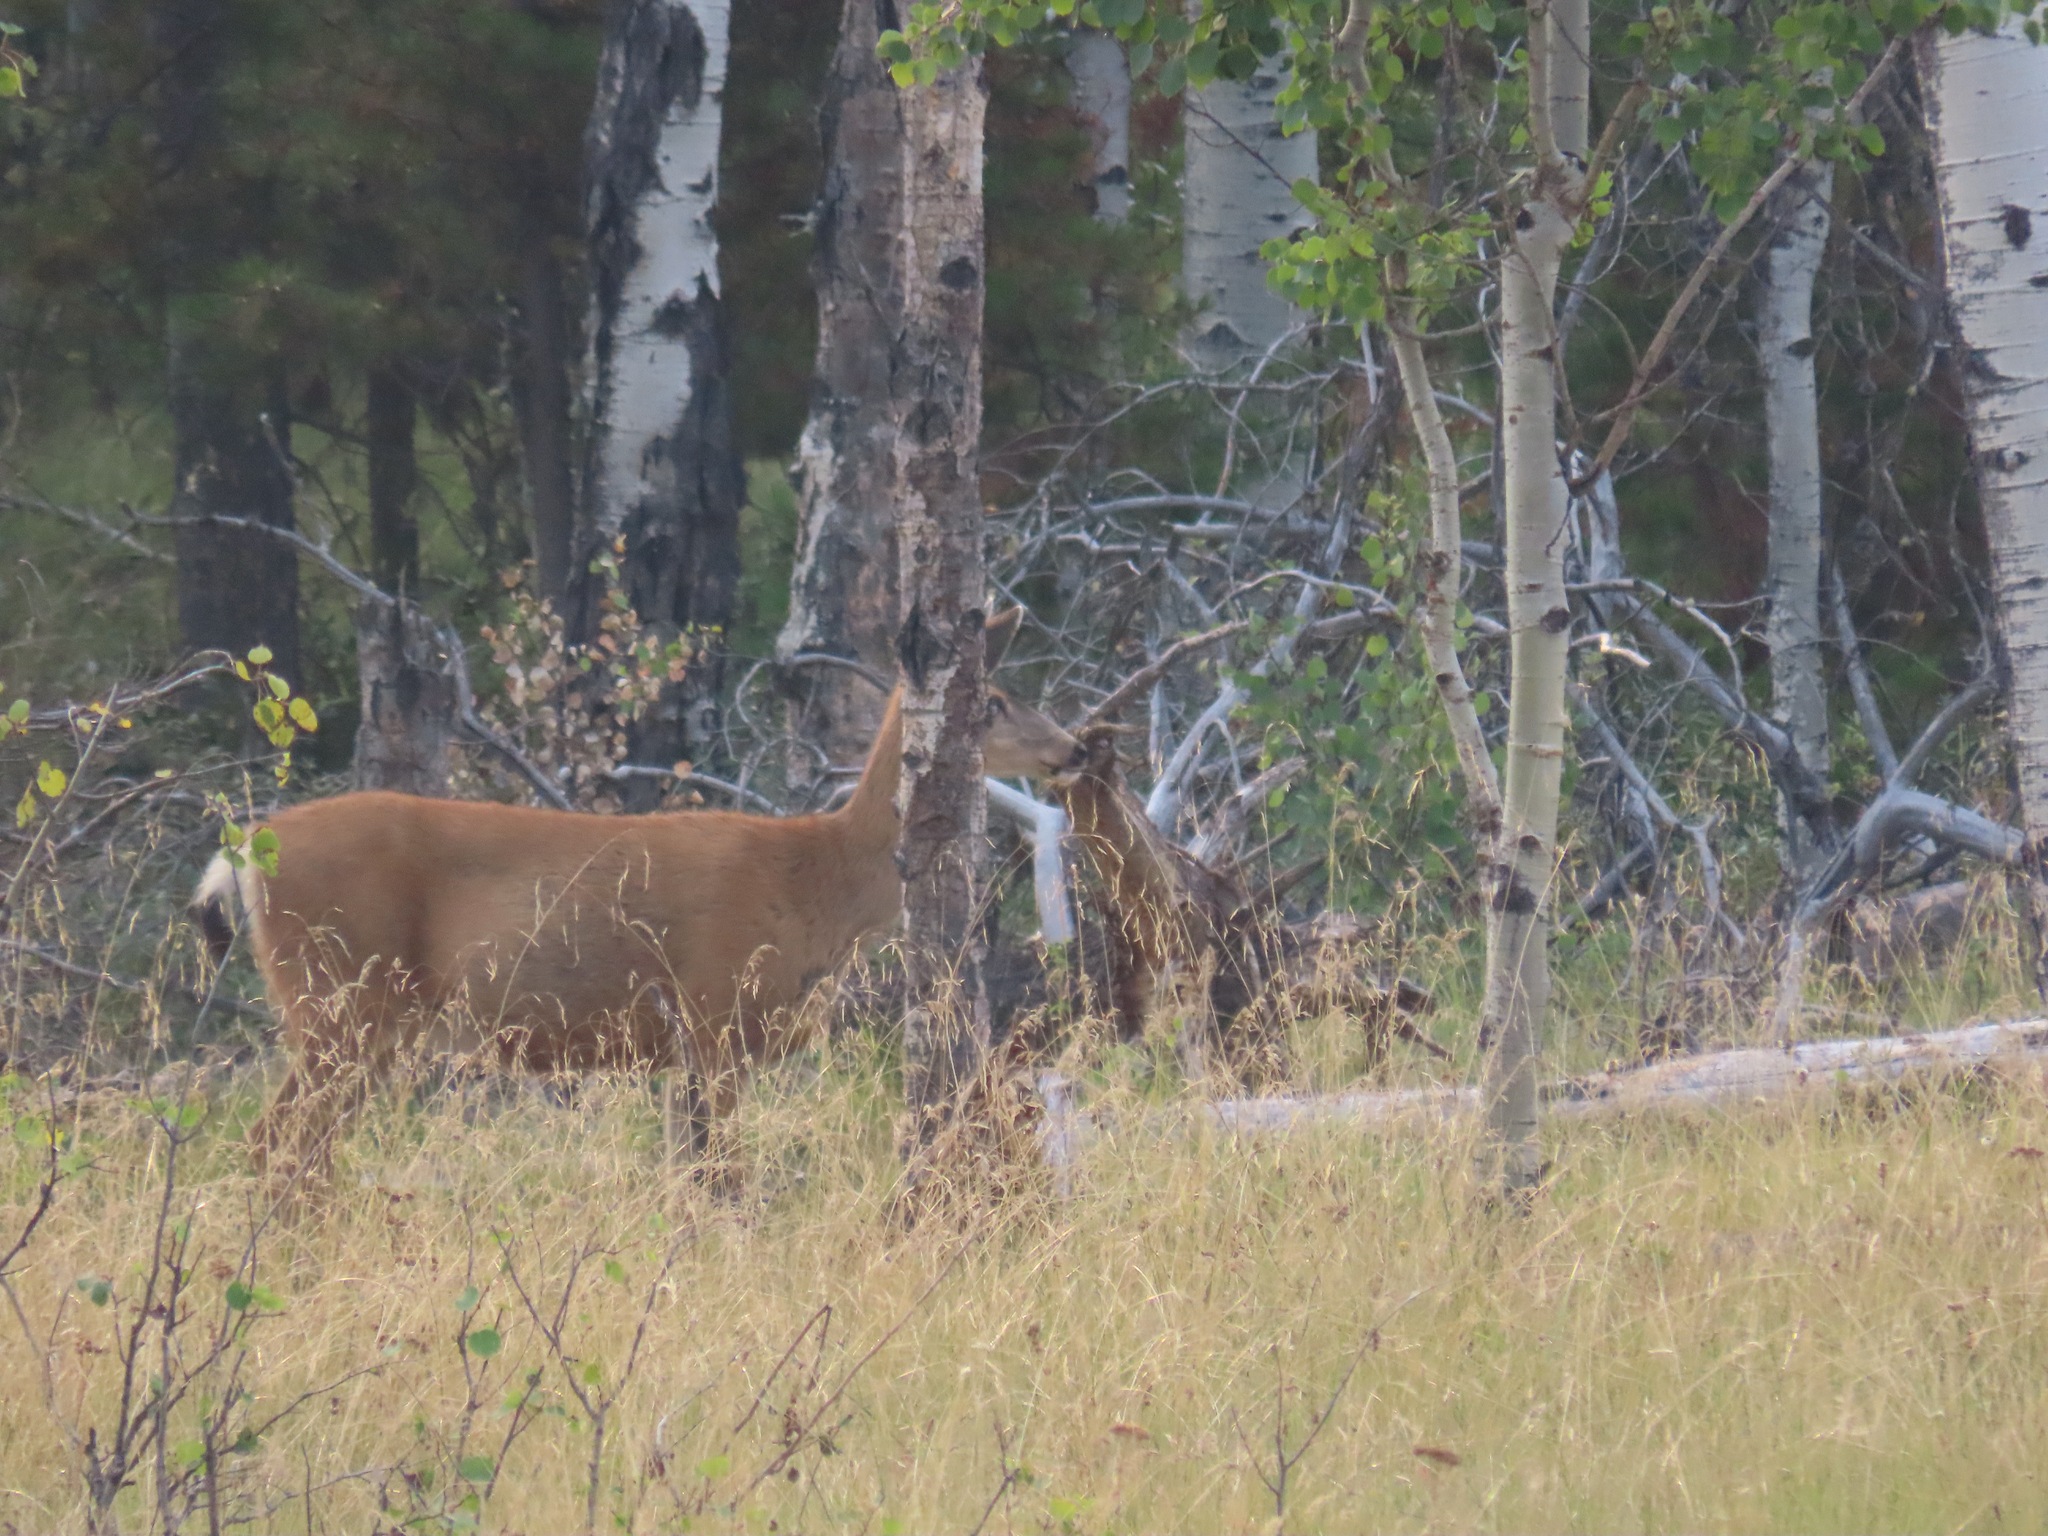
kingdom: Animalia
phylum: Chordata
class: Mammalia
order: Artiodactyla
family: Cervidae
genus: Odocoileus
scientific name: Odocoileus hemionus
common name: Mule deer
